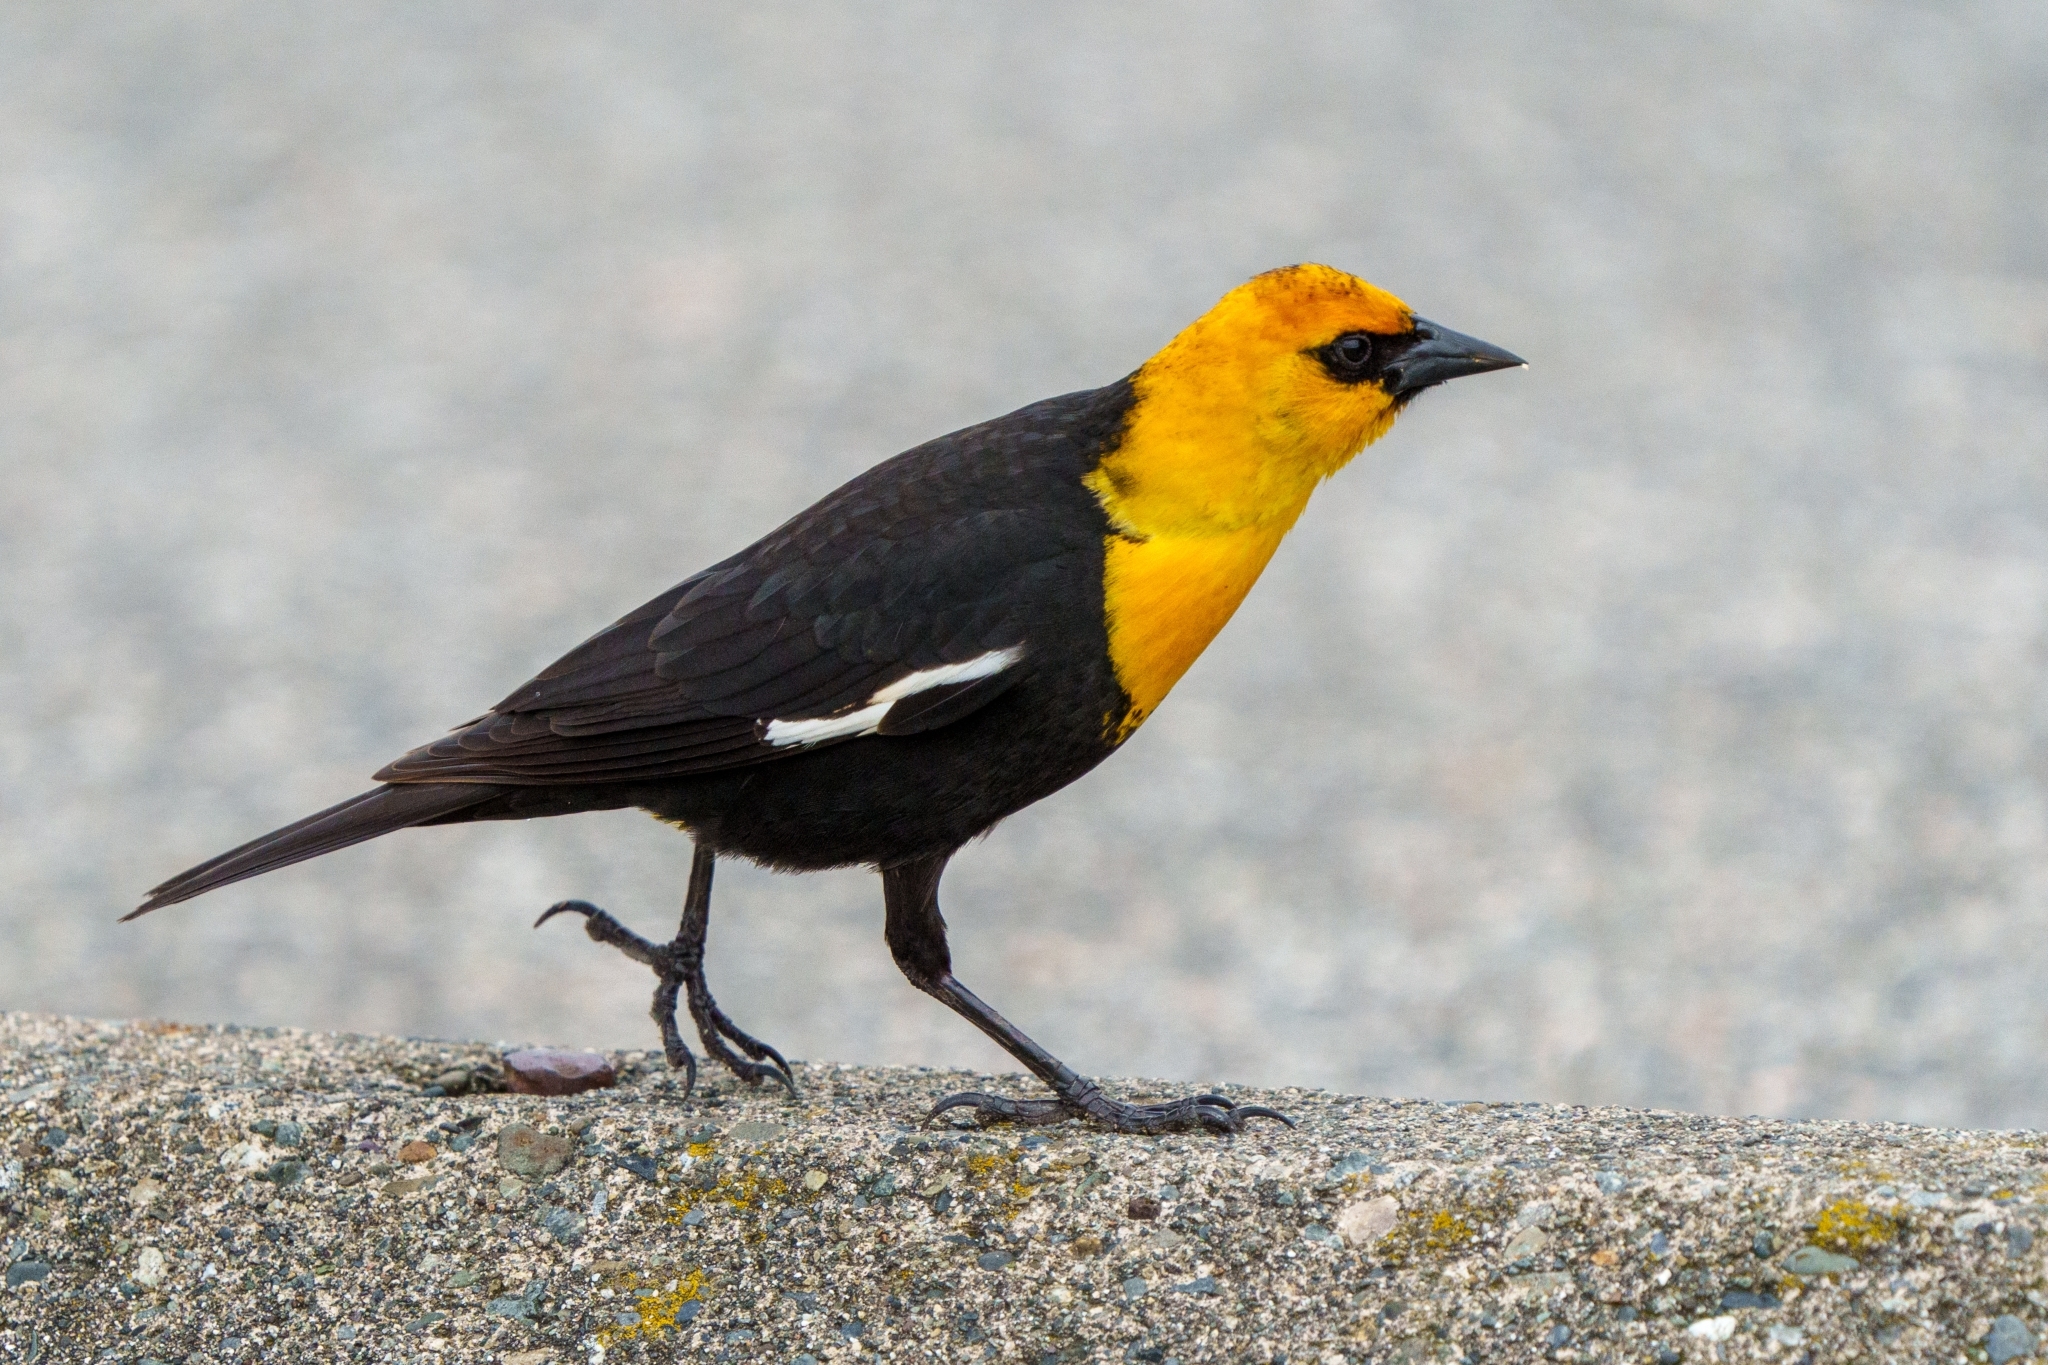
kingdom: Animalia
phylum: Chordata
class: Aves
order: Passeriformes
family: Icteridae
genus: Xanthocephalus
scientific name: Xanthocephalus xanthocephalus
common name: Yellow-headed blackbird
